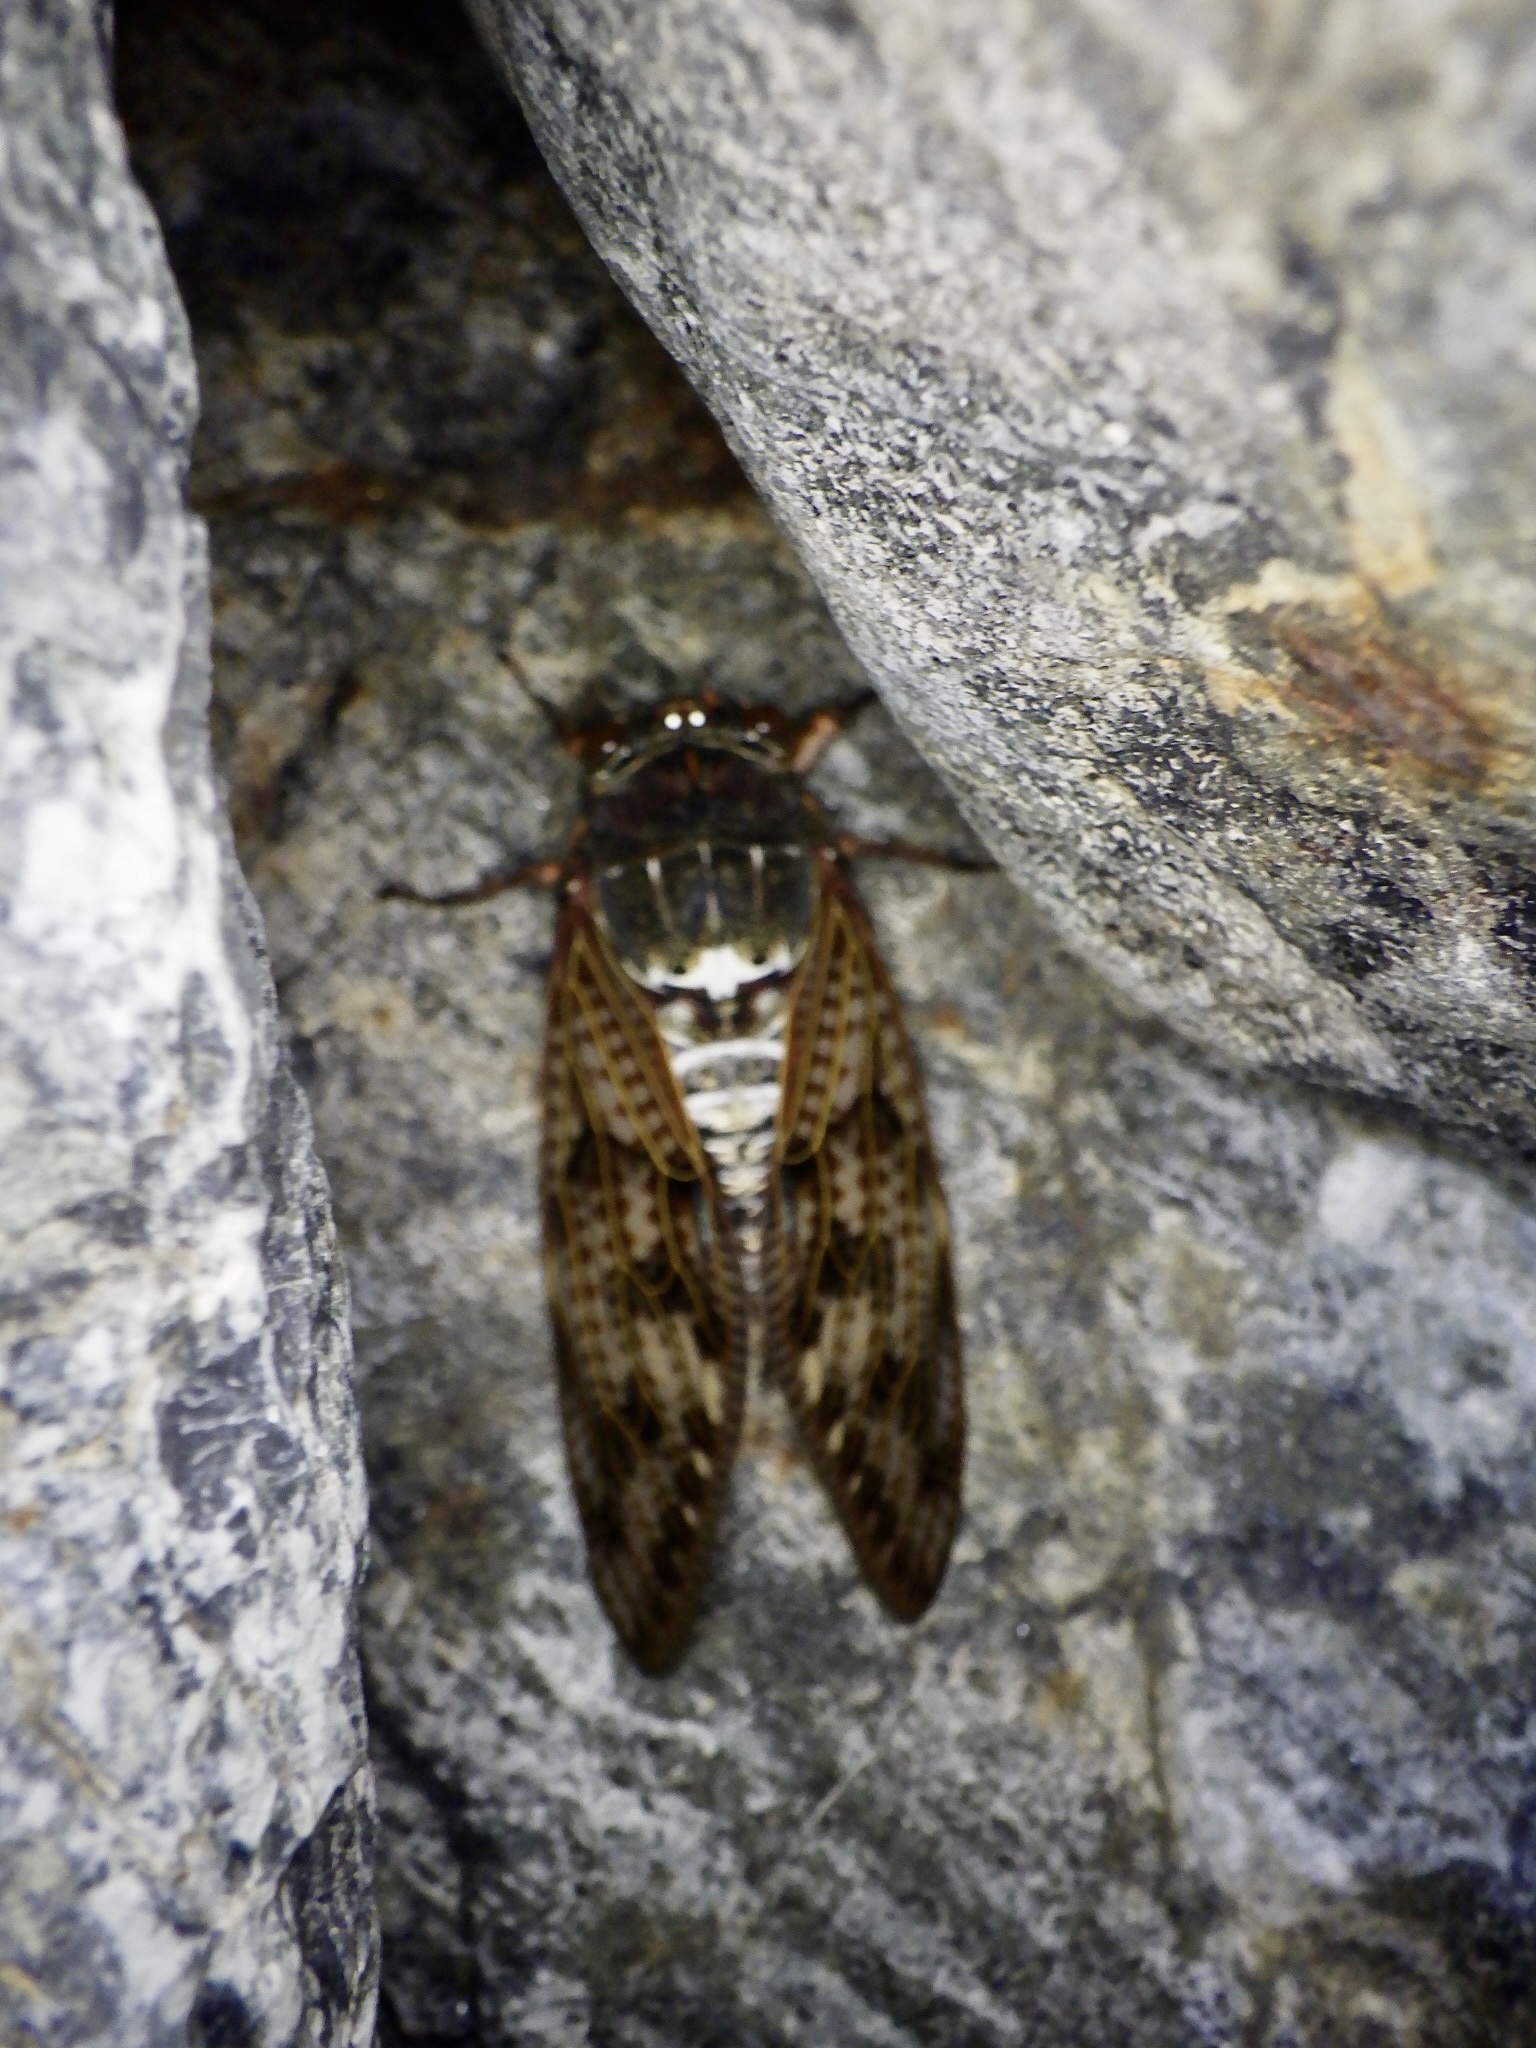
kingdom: Animalia
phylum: Arthropoda
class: Insecta
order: Hemiptera
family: Cicadidae
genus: Graptopsaltria
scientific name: Graptopsaltria nigrofuscata
